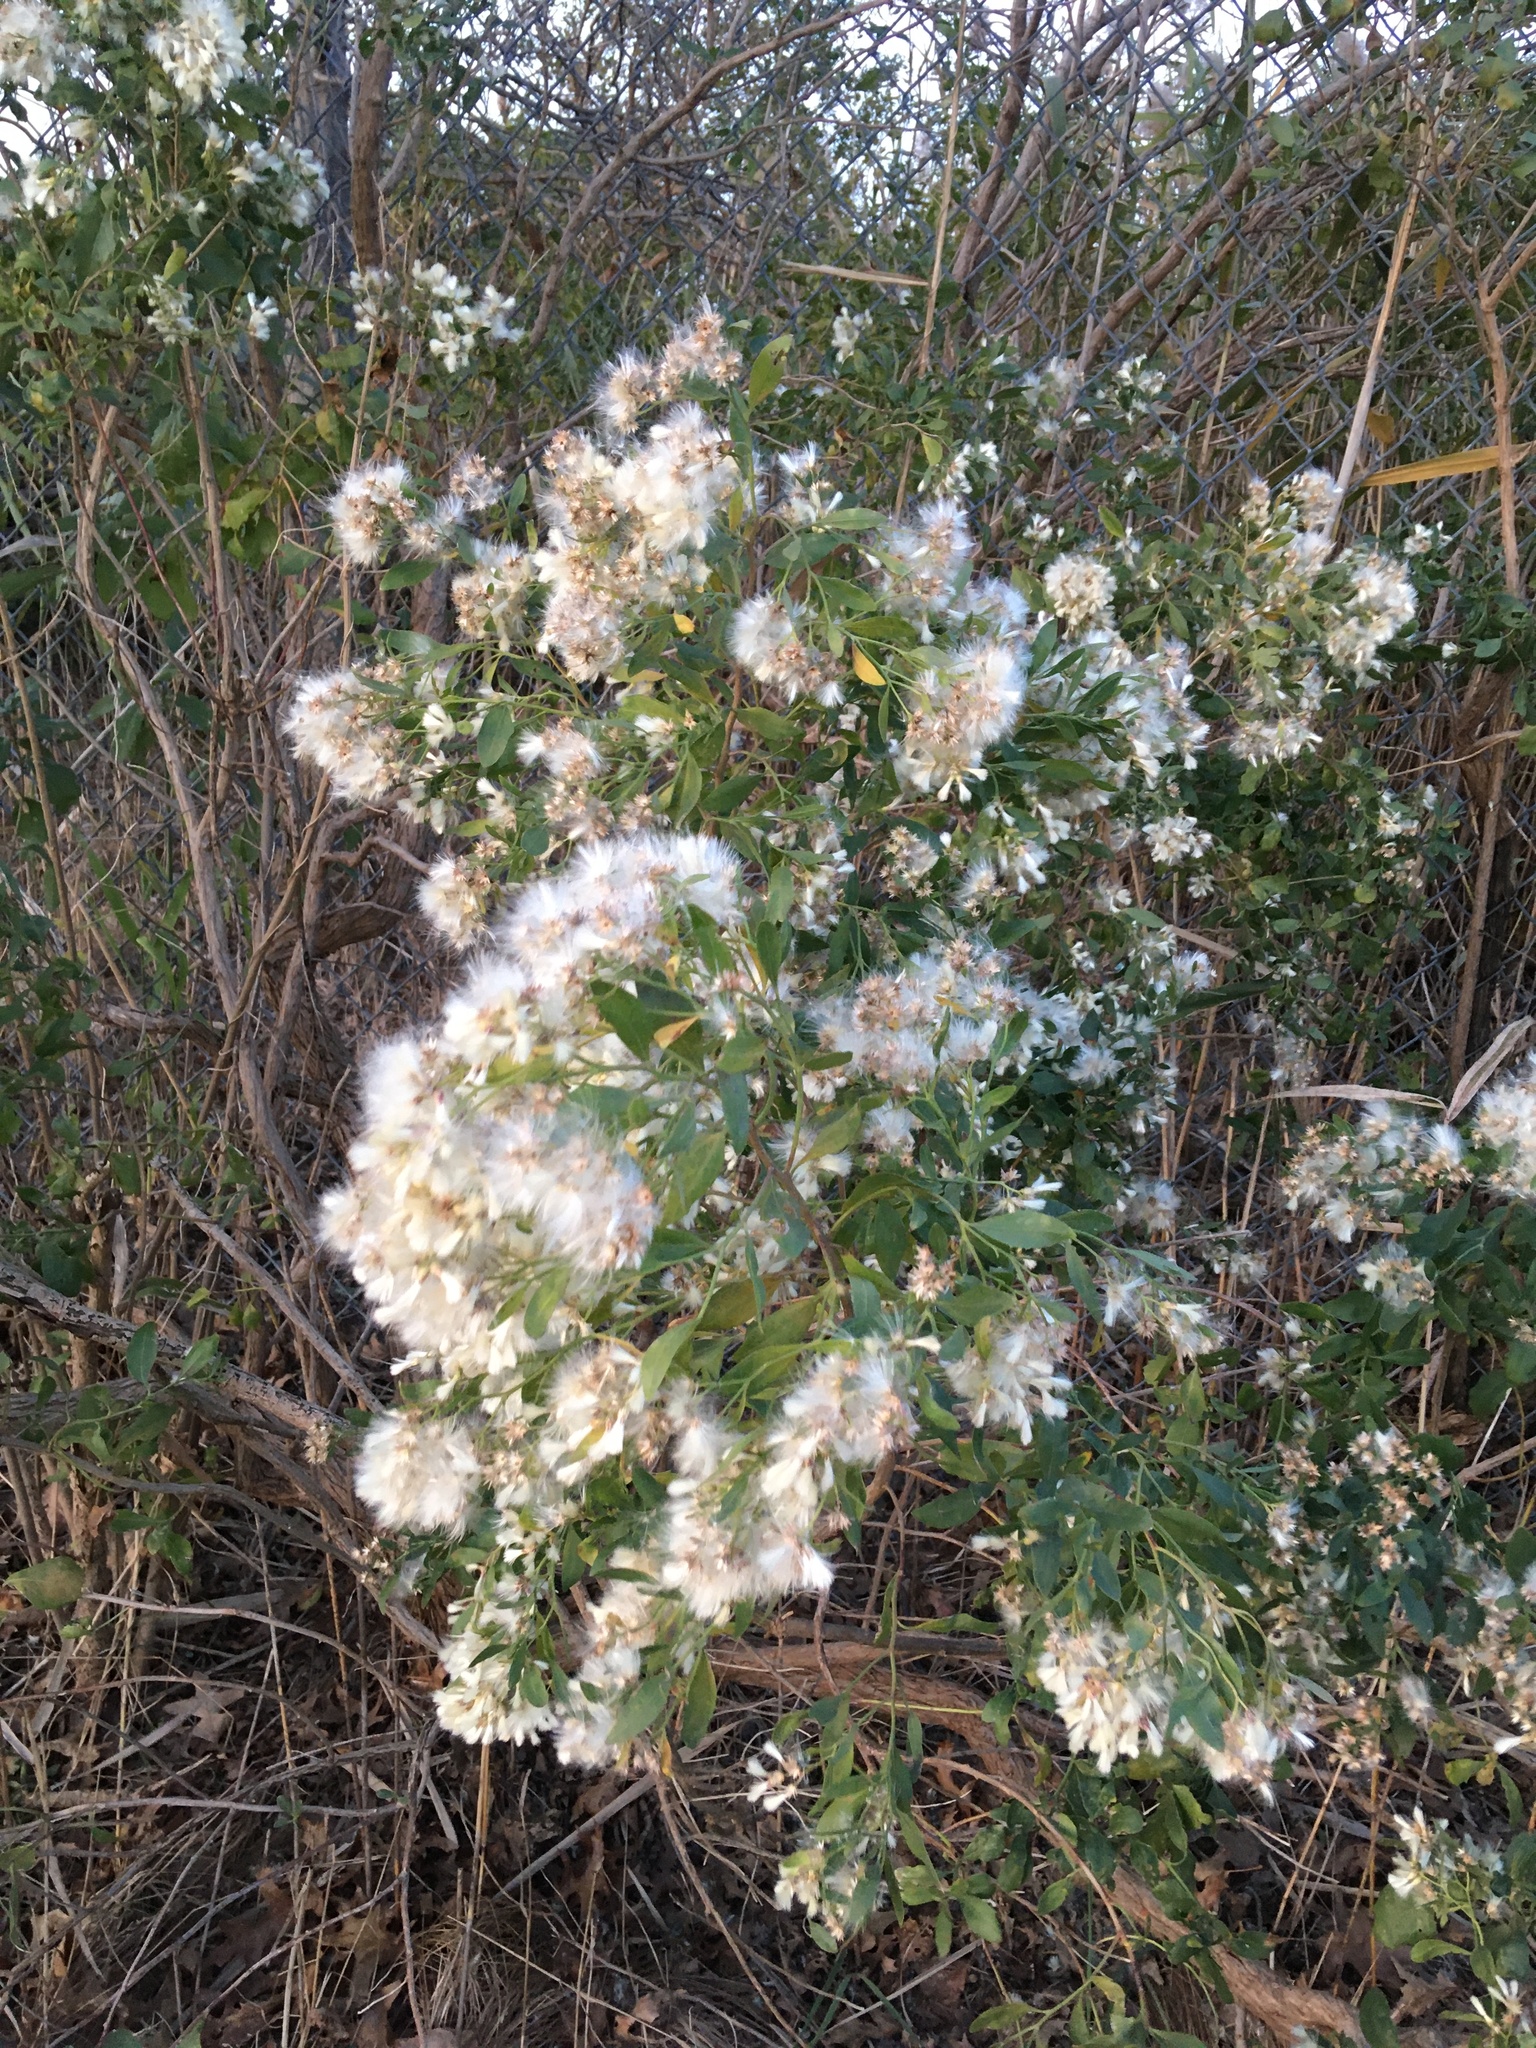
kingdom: Plantae
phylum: Tracheophyta
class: Magnoliopsida
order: Asterales
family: Asteraceae
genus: Baccharis
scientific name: Baccharis halimifolia
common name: Eastern baccharis
